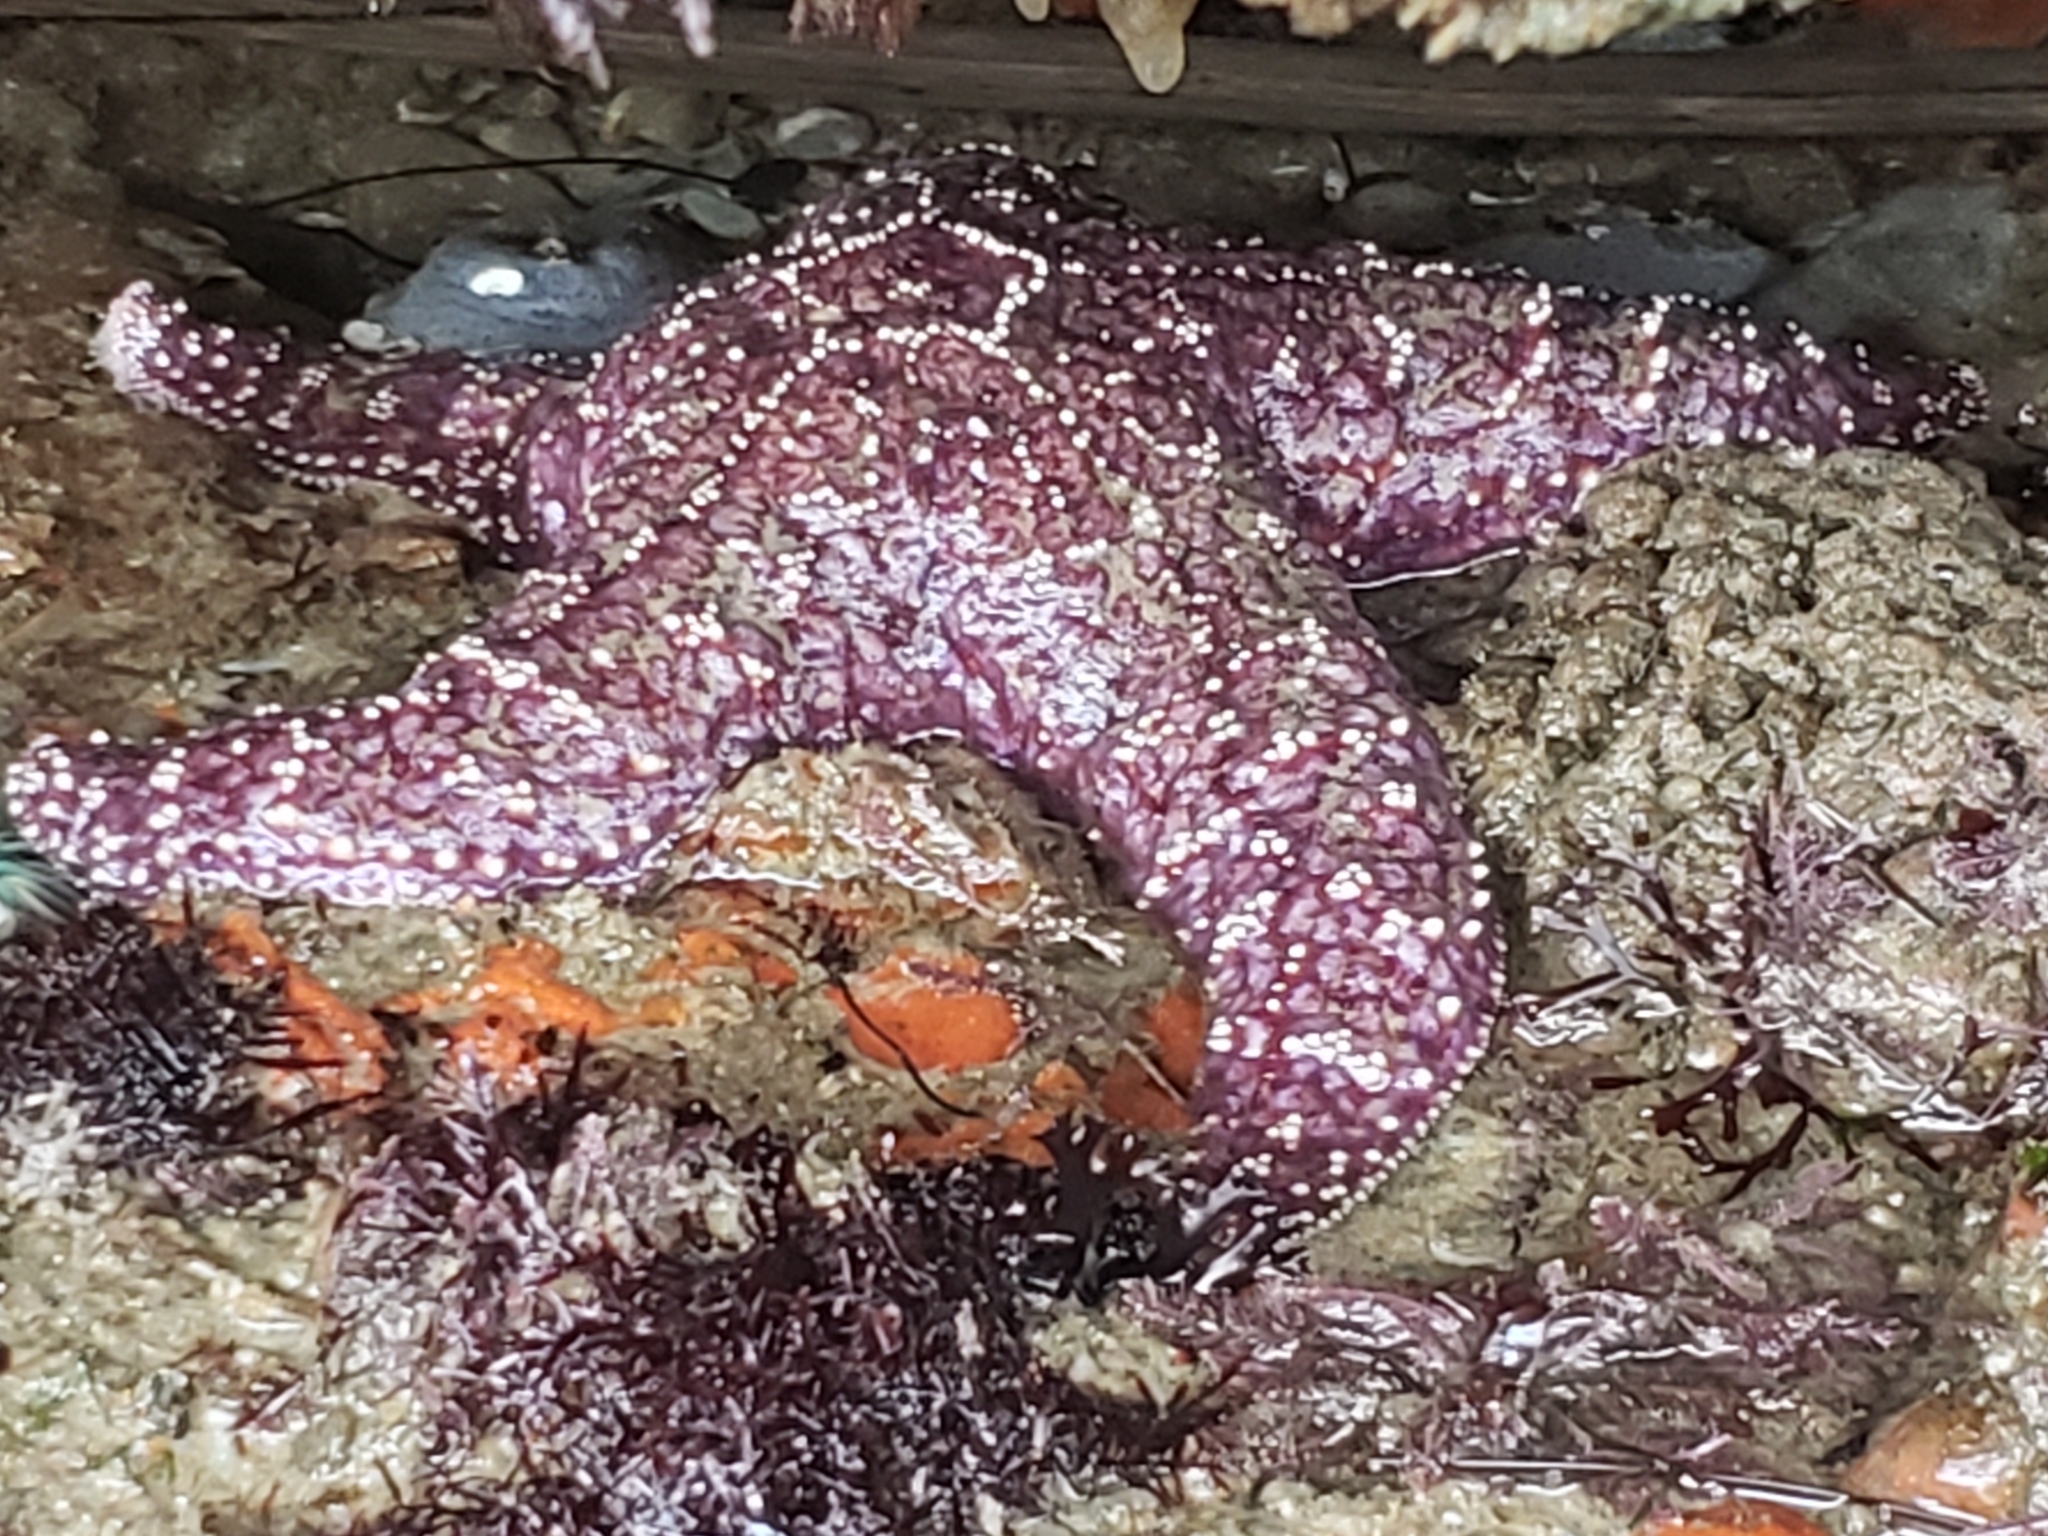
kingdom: Animalia
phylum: Echinodermata
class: Asteroidea
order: Forcipulatida
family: Asteriidae
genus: Pisaster
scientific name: Pisaster ochraceus
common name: Ochre stars
